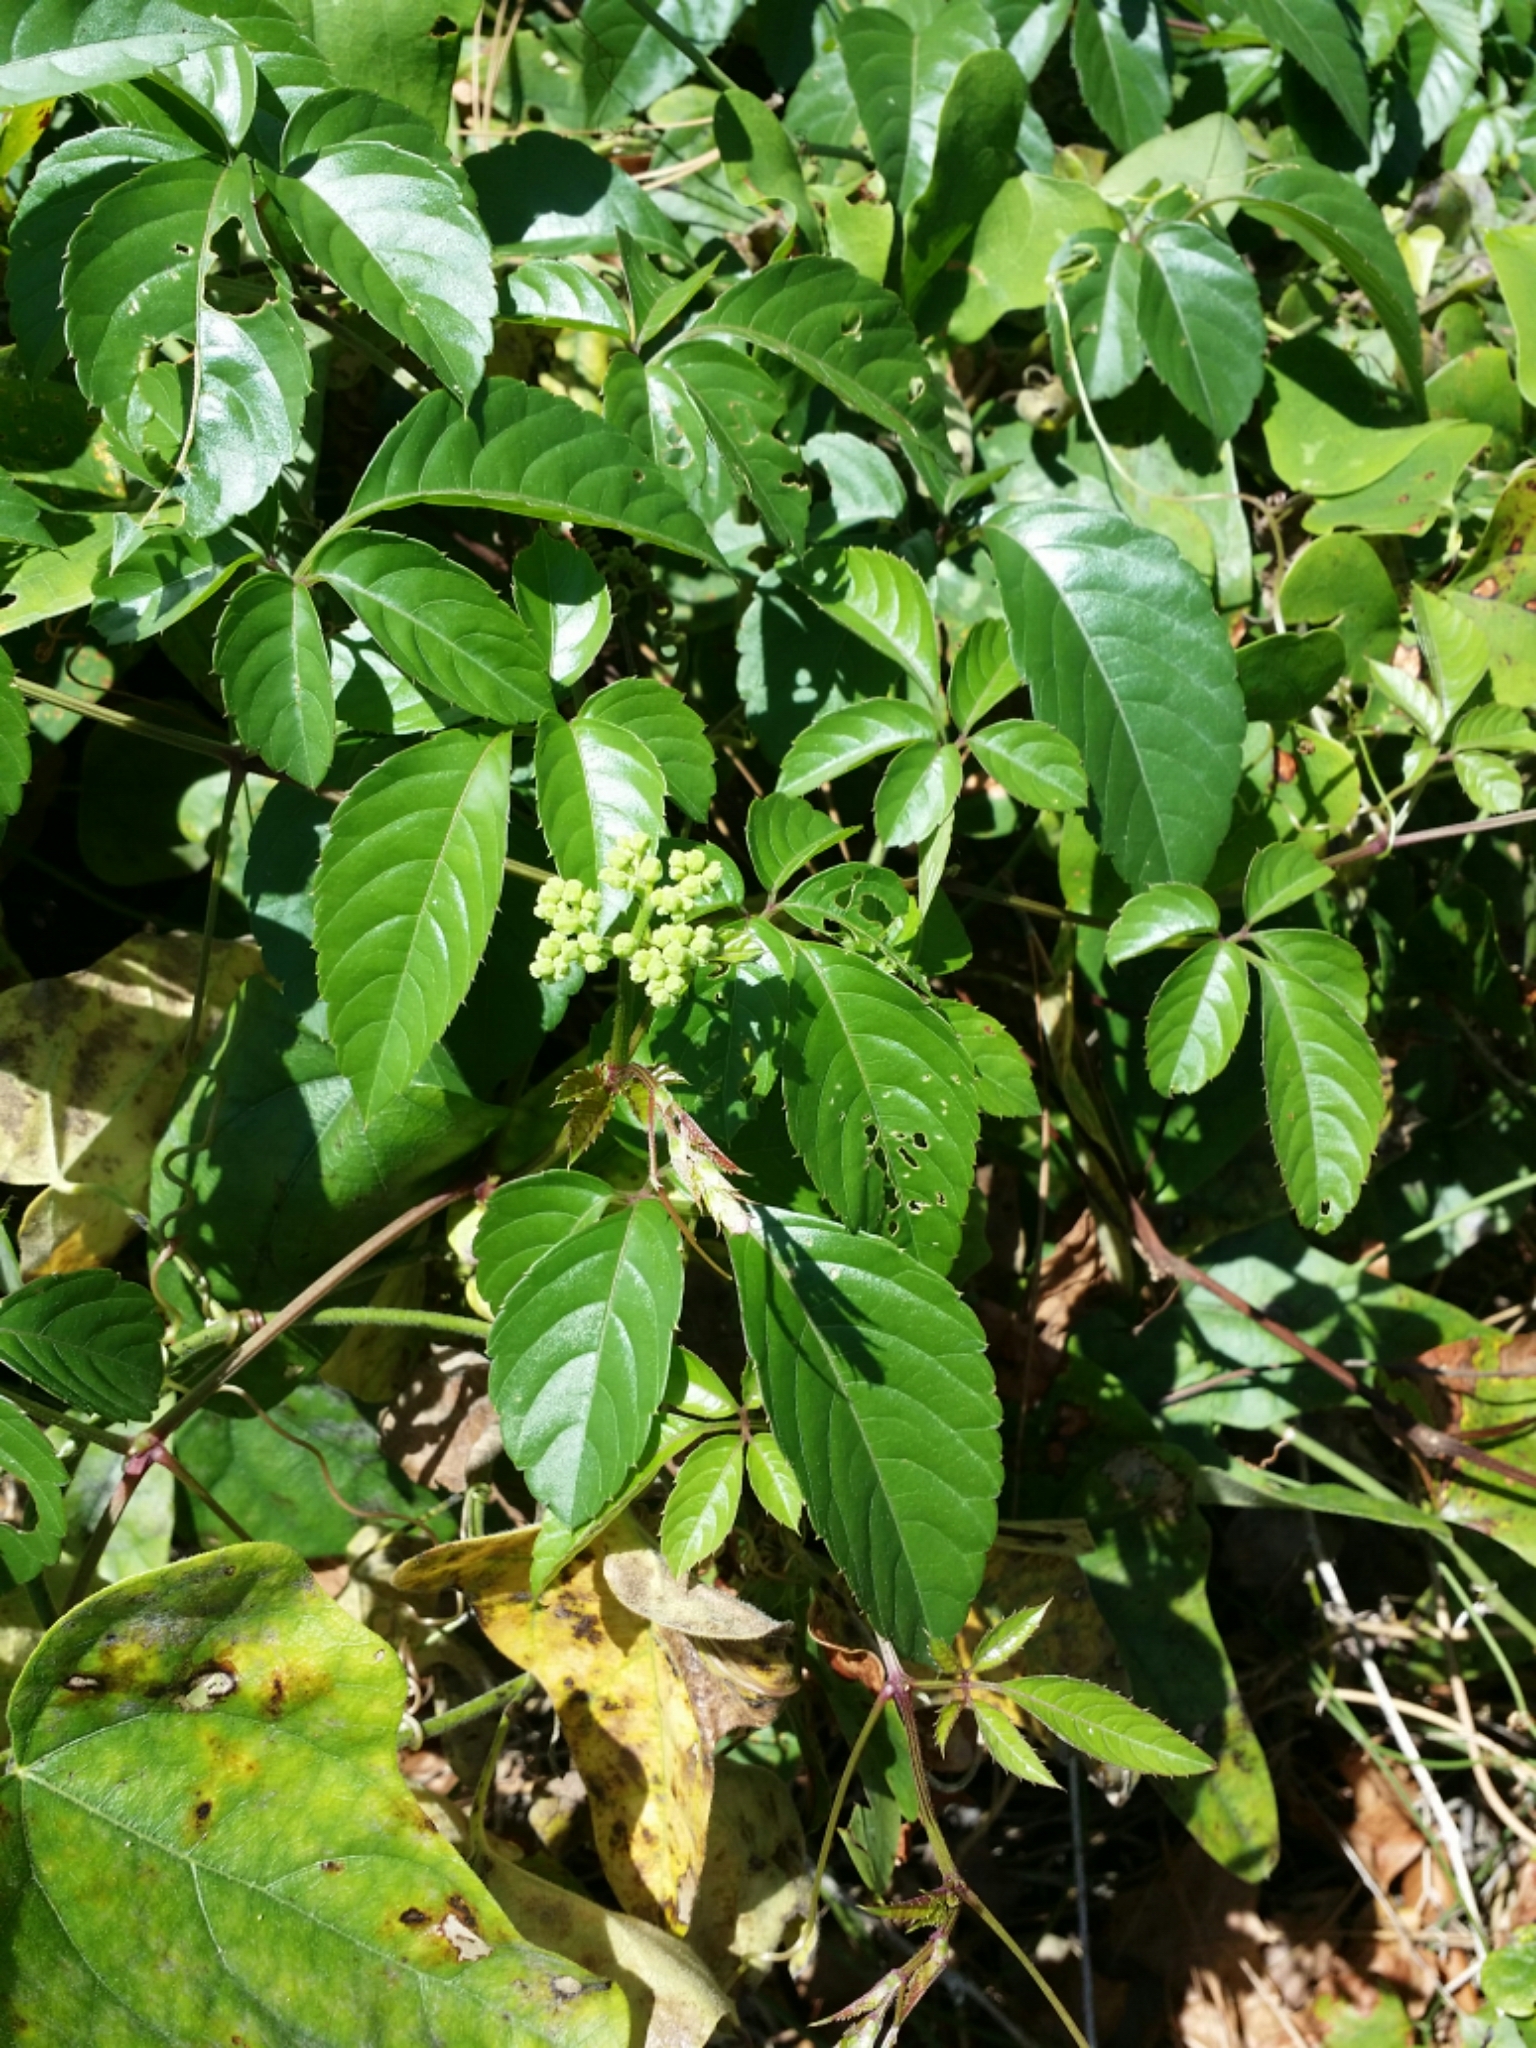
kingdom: Plantae
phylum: Tracheophyta
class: Magnoliopsida
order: Vitales
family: Vitaceae
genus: Causonis
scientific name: Causonis japonica
